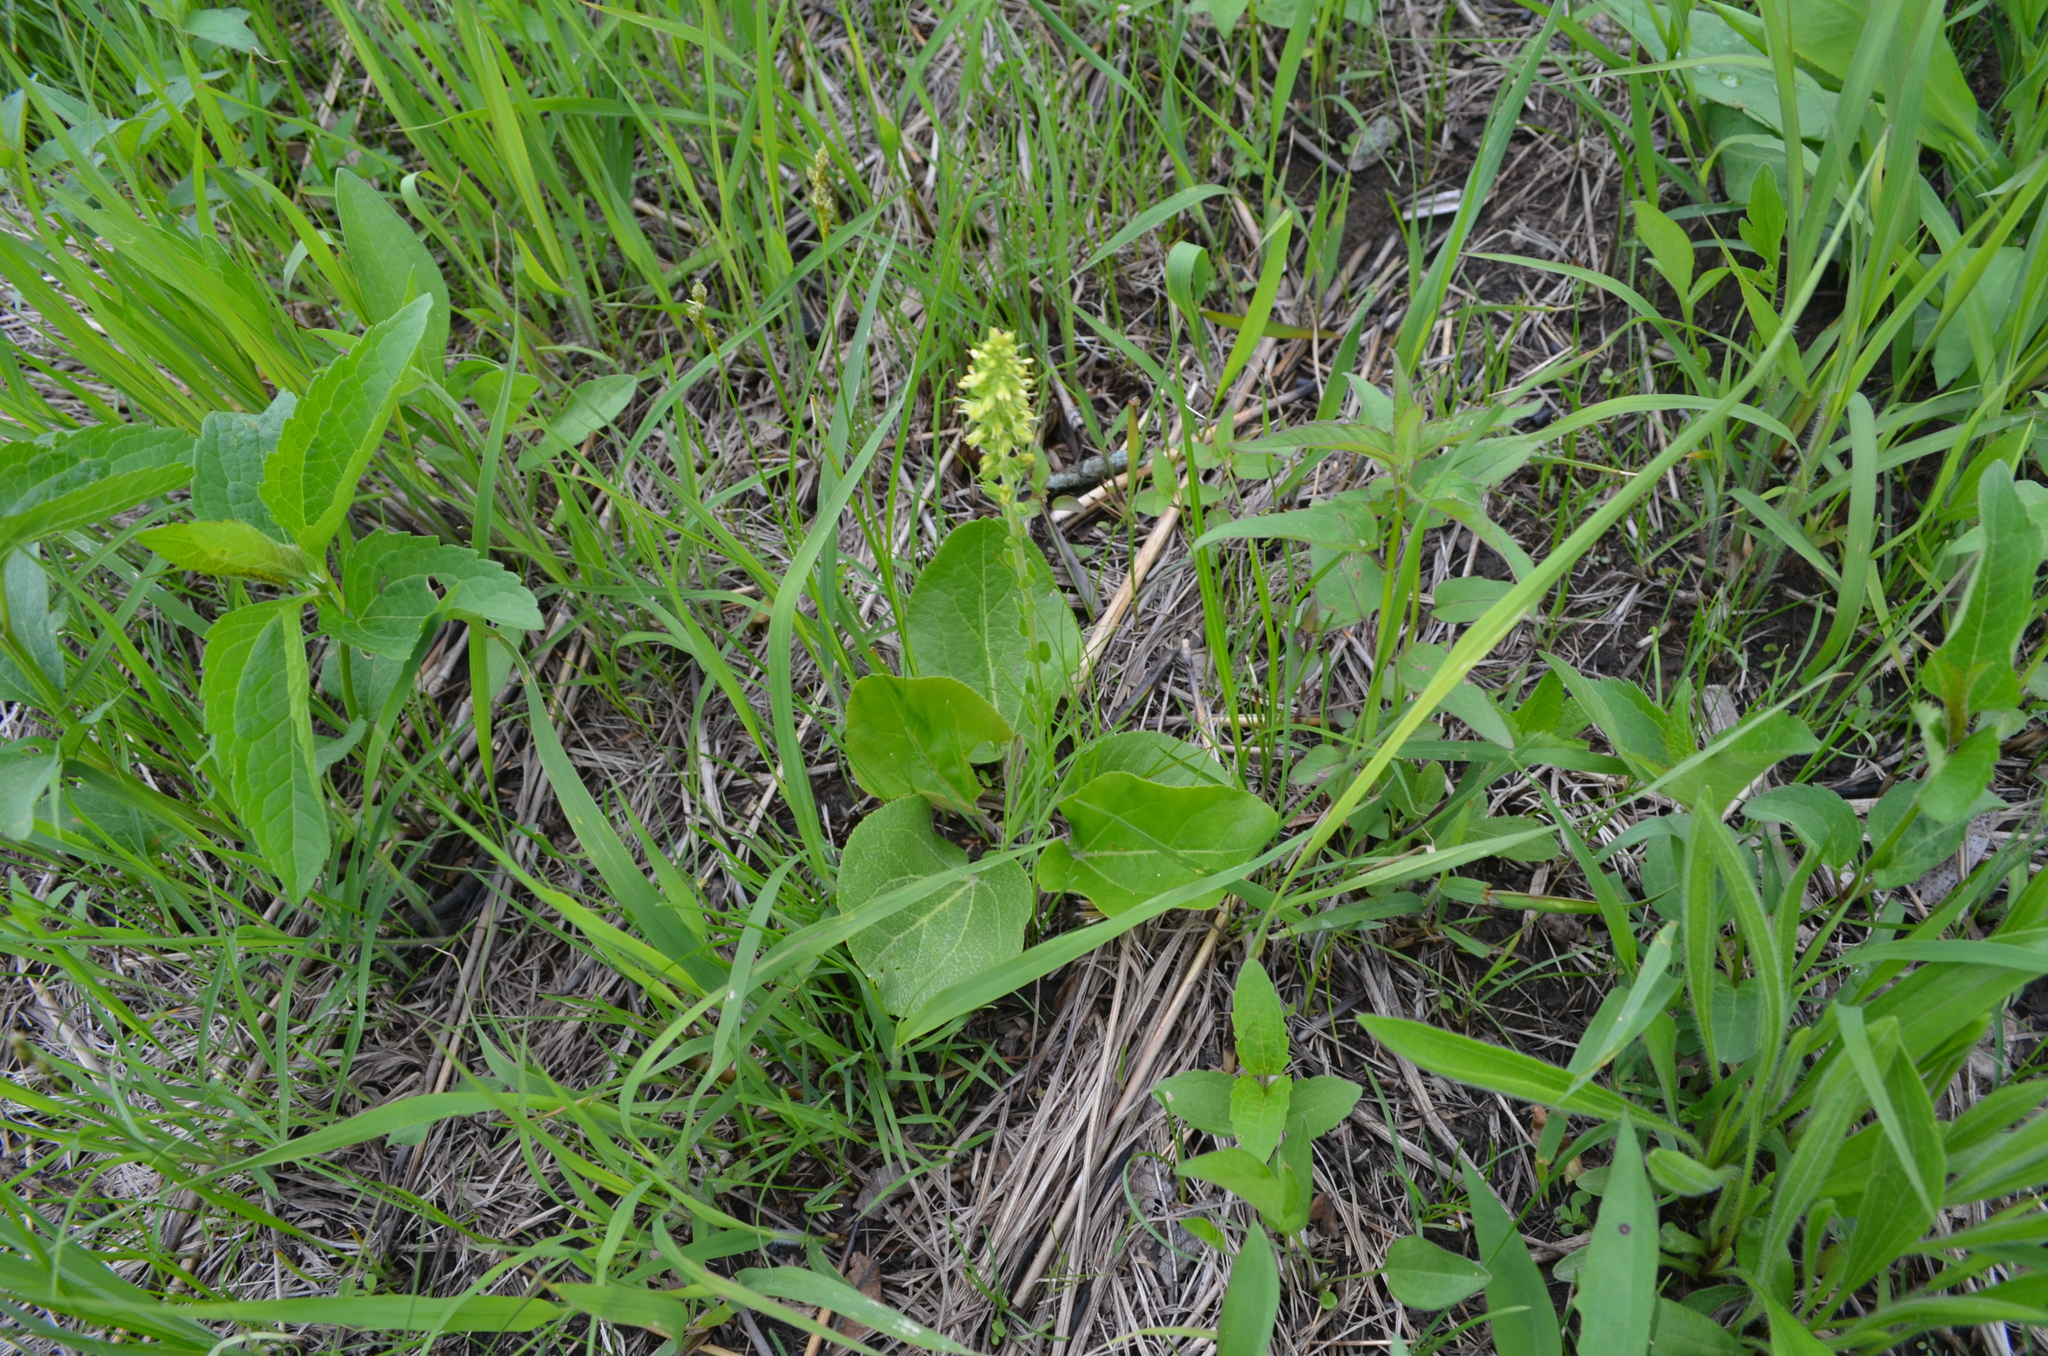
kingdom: Plantae
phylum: Tracheophyta
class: Magnoliopsida
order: Lamiales
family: Plantaginaceae
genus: Synthyris
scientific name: Synthyris bullii
